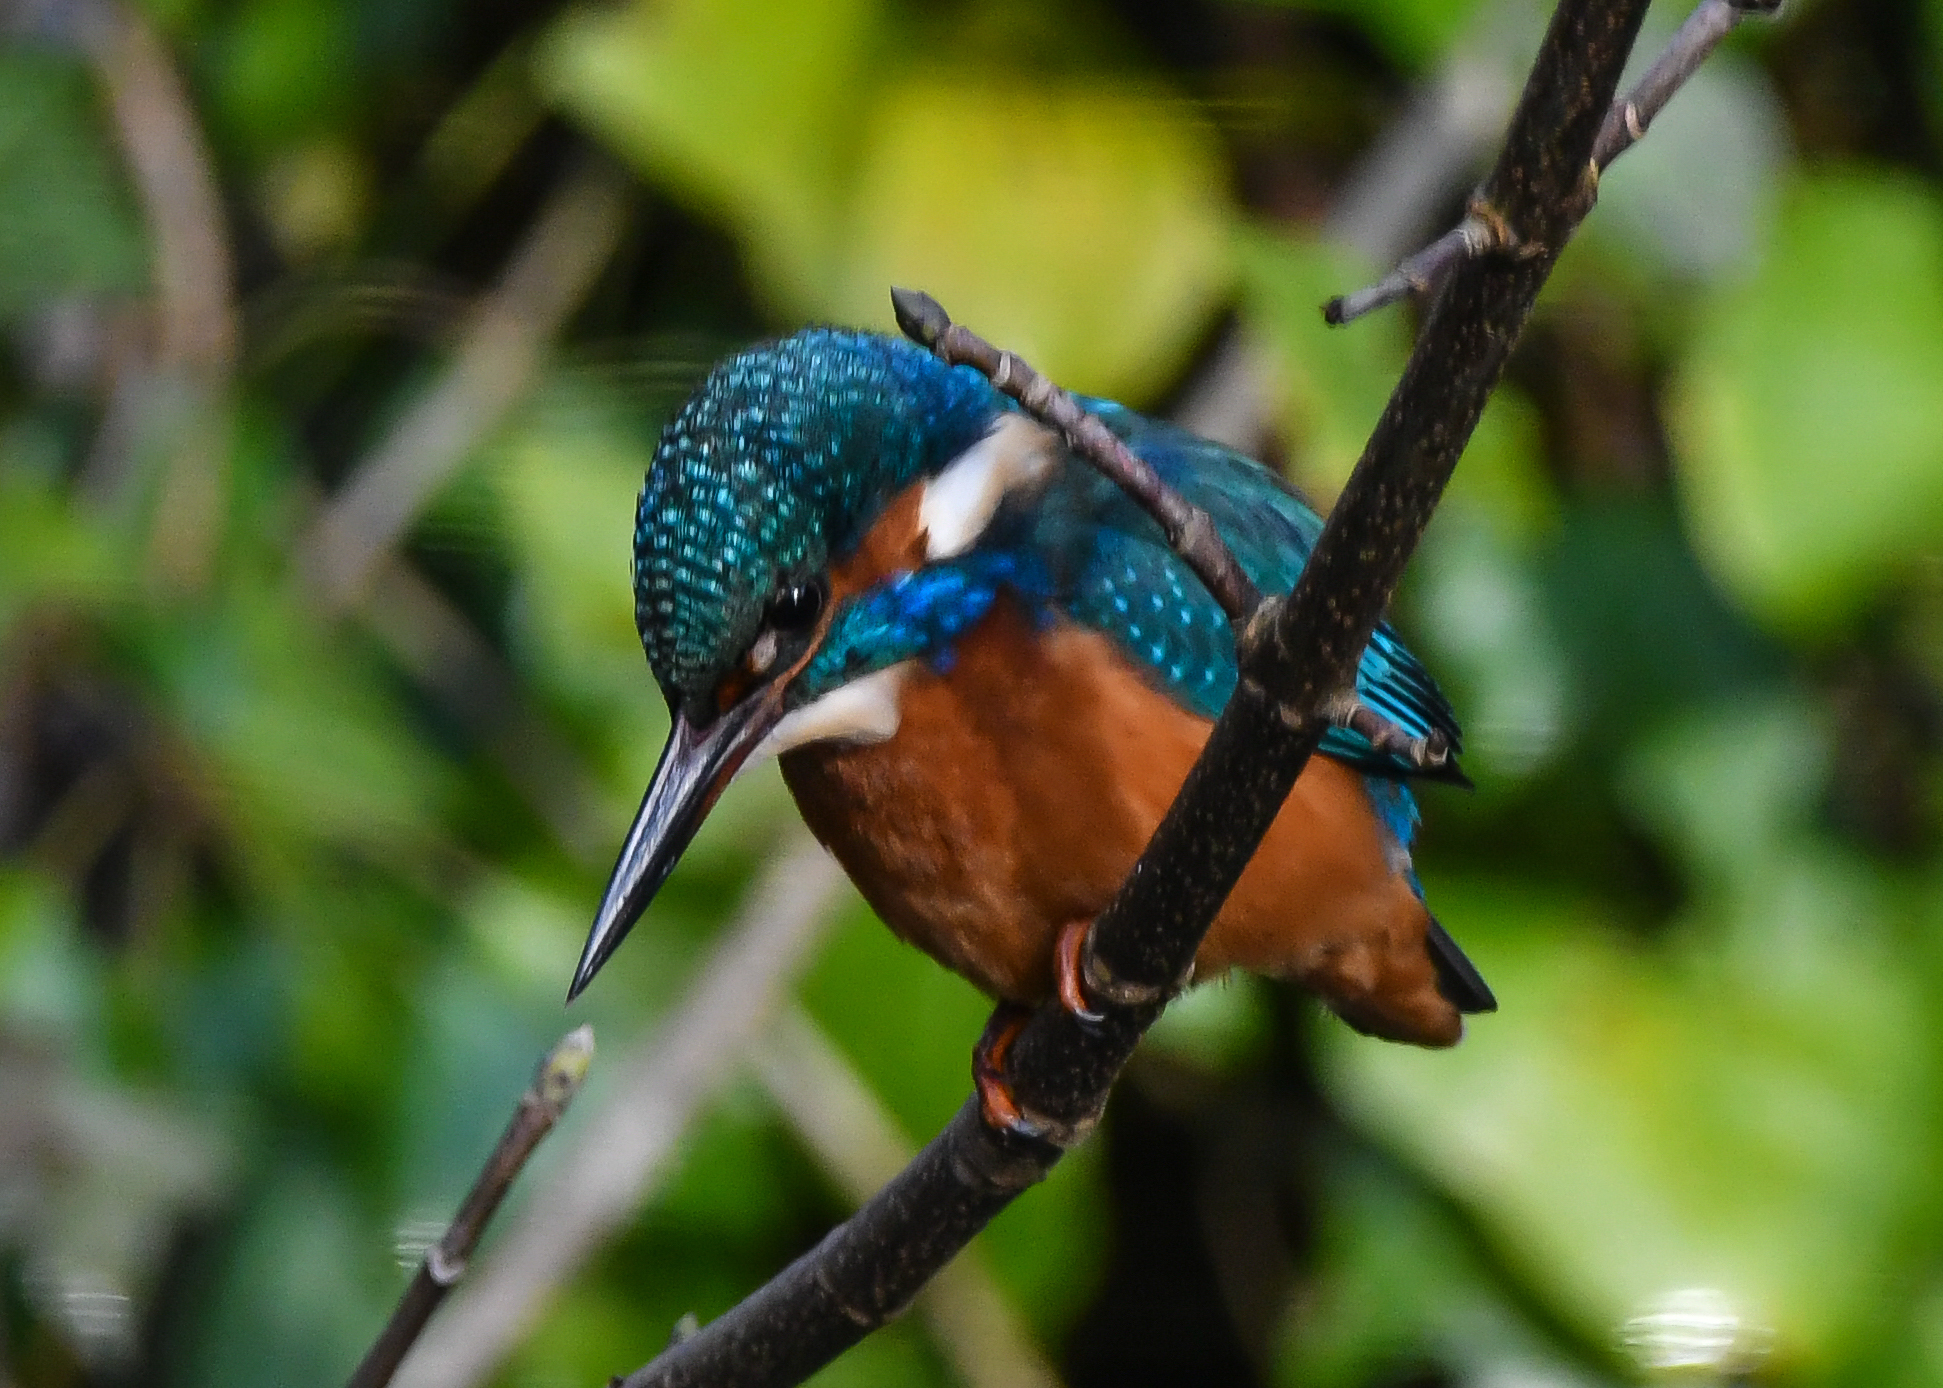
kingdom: Animalia
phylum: Chordata
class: Aves
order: Coraciiformes
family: Alcedinidae
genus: Alcedo
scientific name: Alcedo atthis
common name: Common kingfisher
